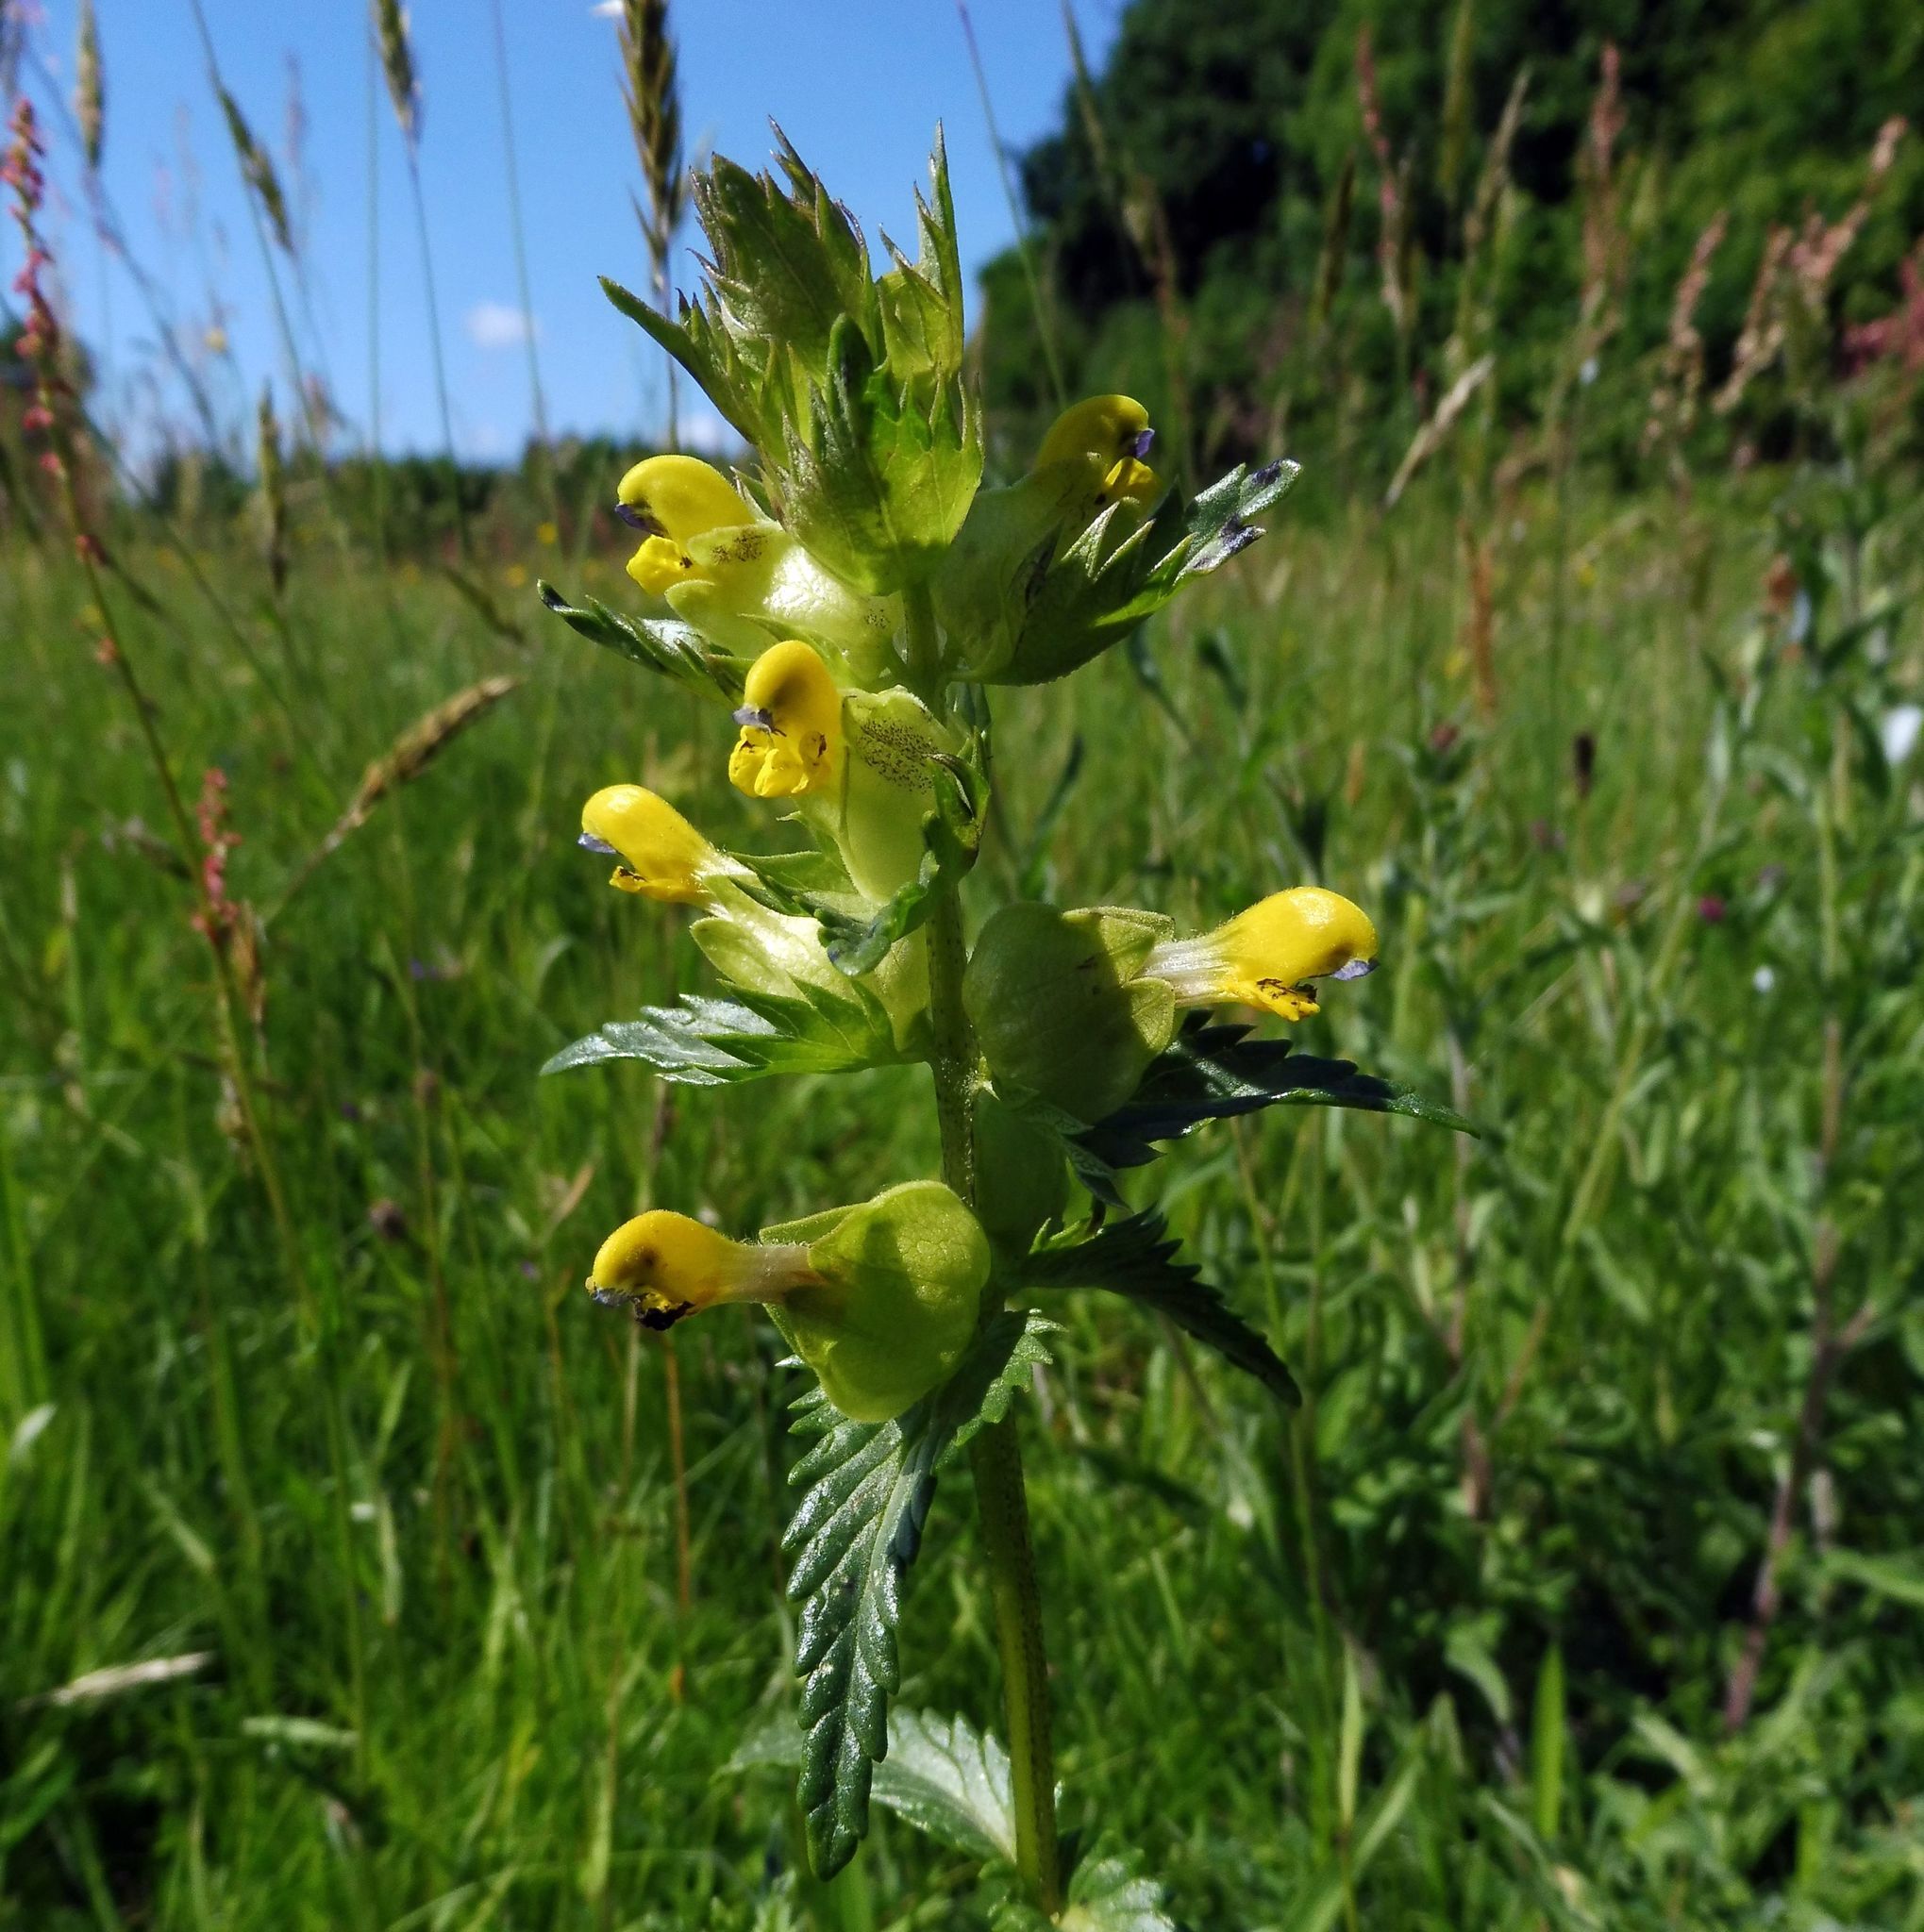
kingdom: Plantae
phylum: Tracheophyta
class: Magnoliopsida
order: Lamiales
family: Orobanchaceae
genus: Rhinanthus
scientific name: Rhinanthus minor
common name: Yellow-rattle
